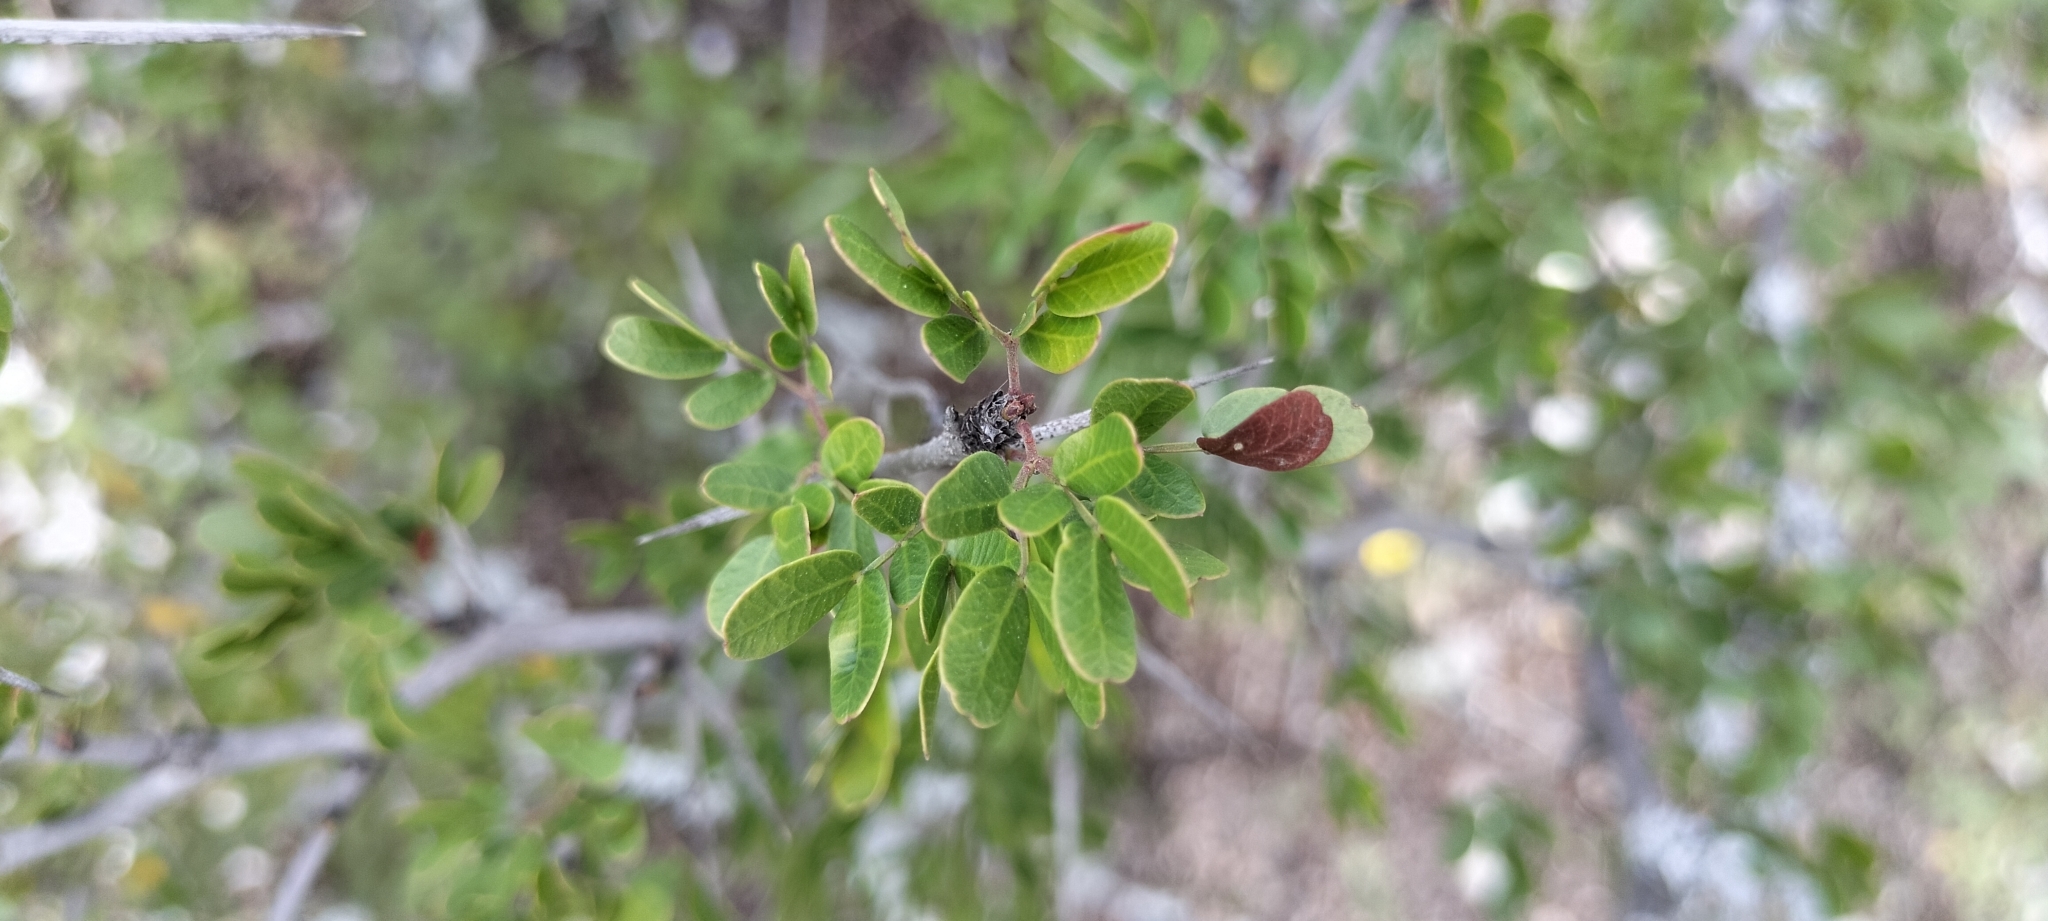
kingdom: Plantae
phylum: Tracheophyta
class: Magnoliopsida
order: Fabales
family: Fabaceae
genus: Vachellia
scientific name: Vachellia rigidula
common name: Blackbrush
